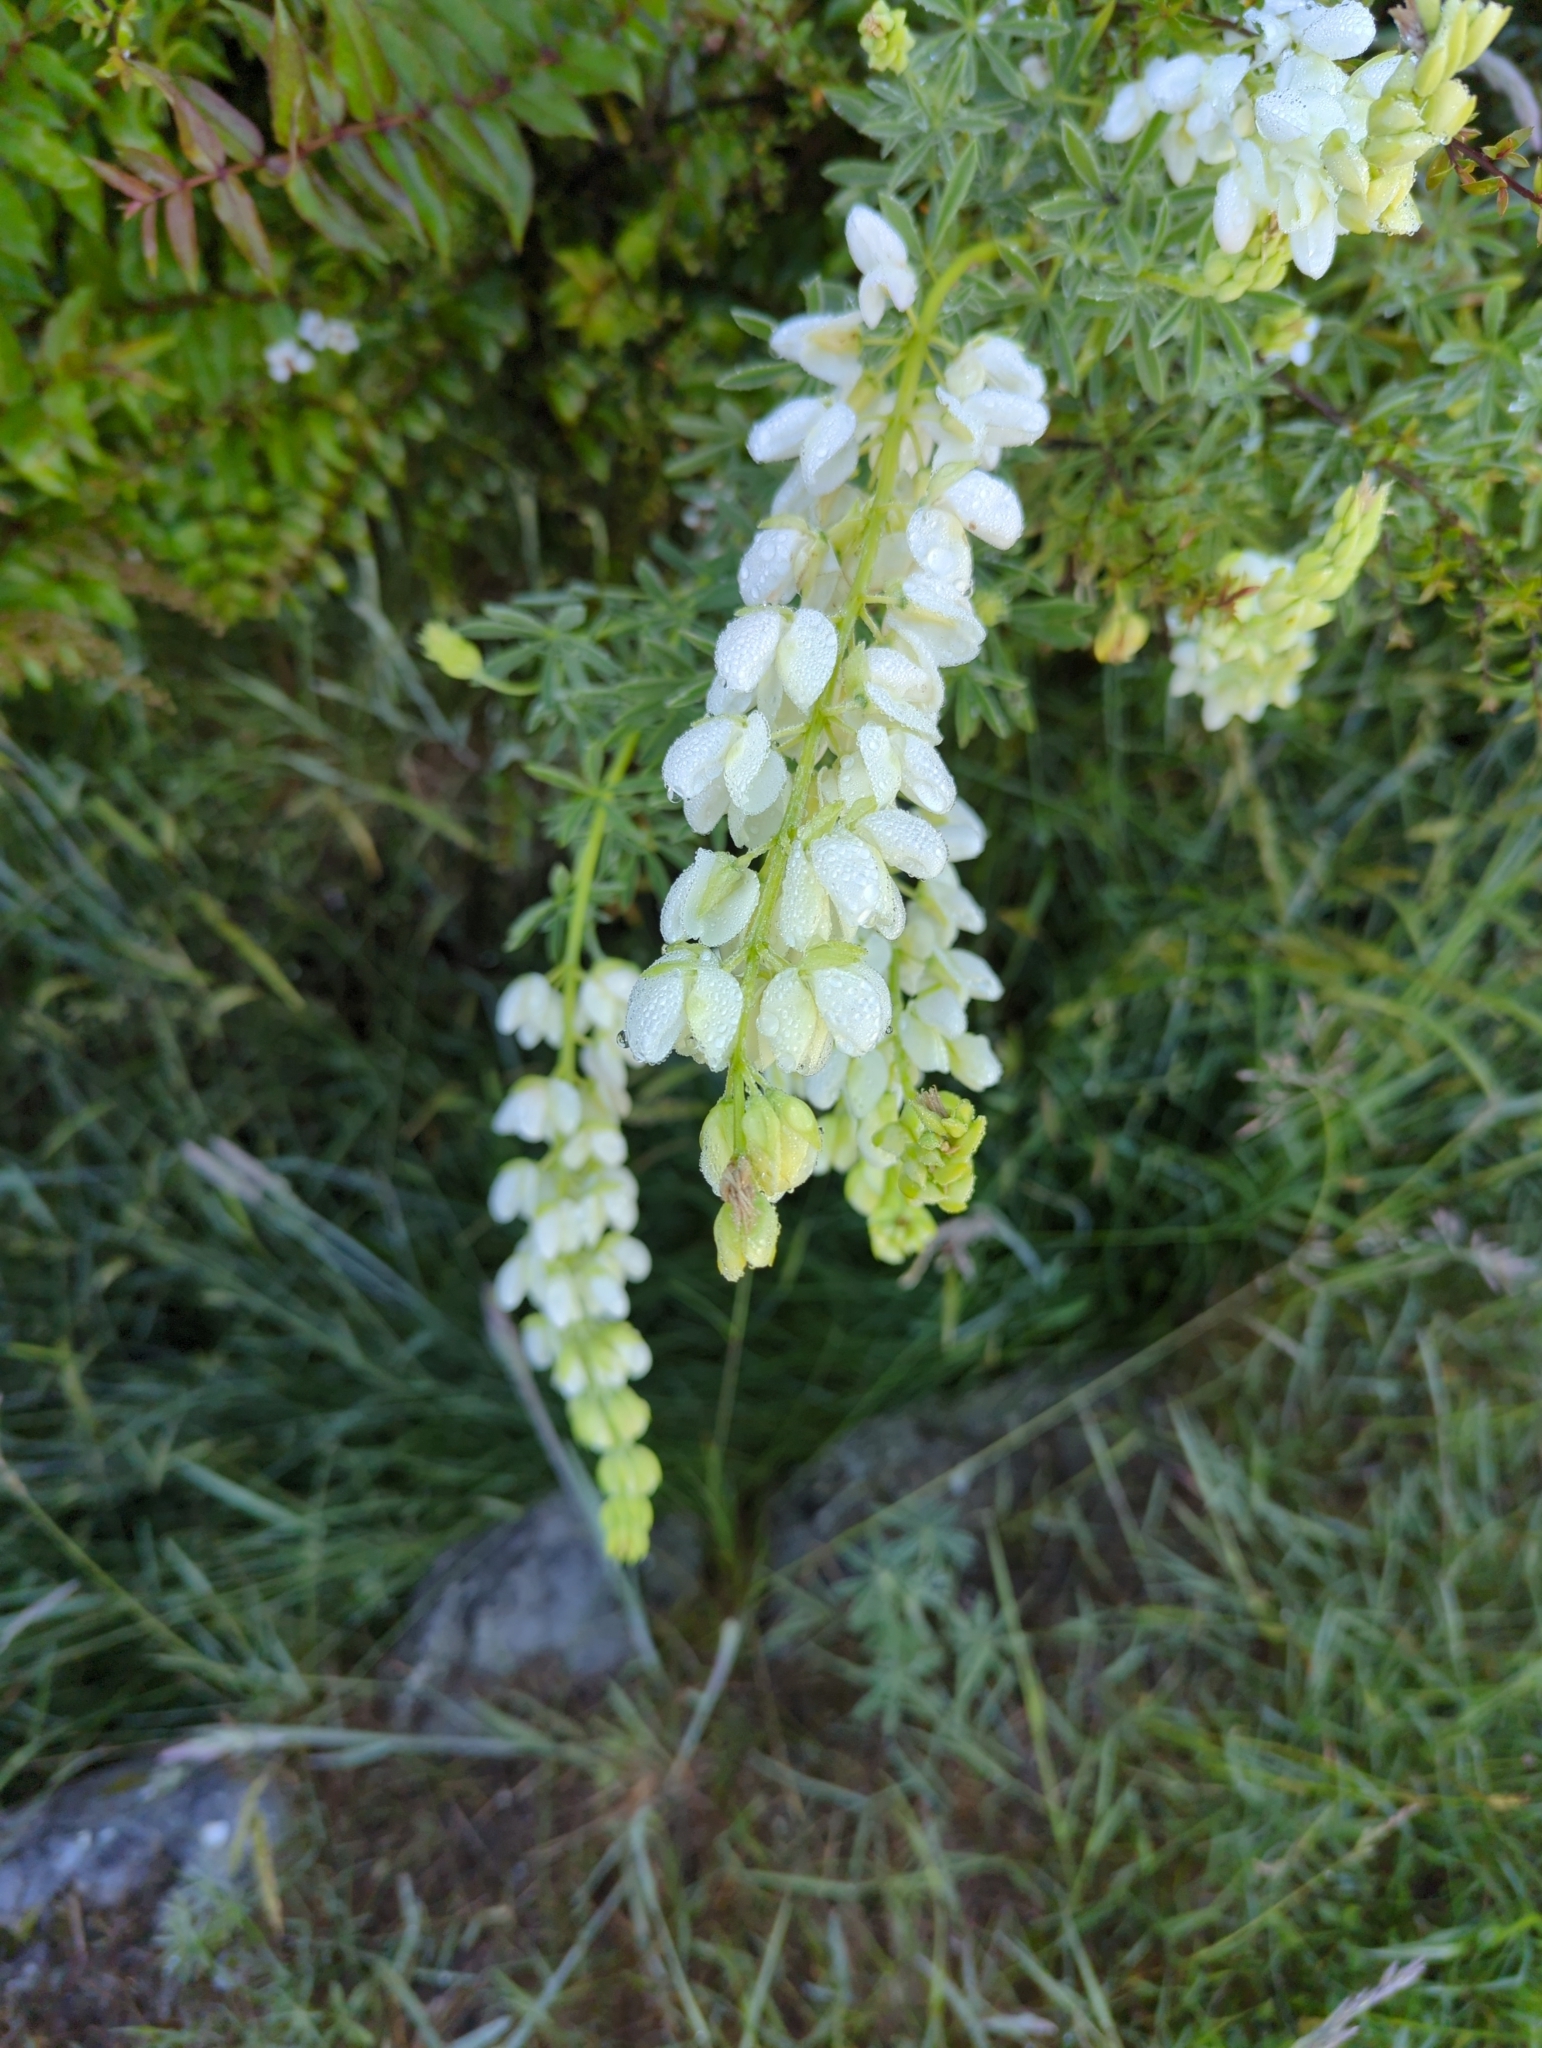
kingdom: Plantae
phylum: Tracheophyta
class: Magnoliopsida
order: Fabales
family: Fabaceae
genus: Lupinus
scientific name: Lupinus arboreus
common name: Yellow bush lupine
